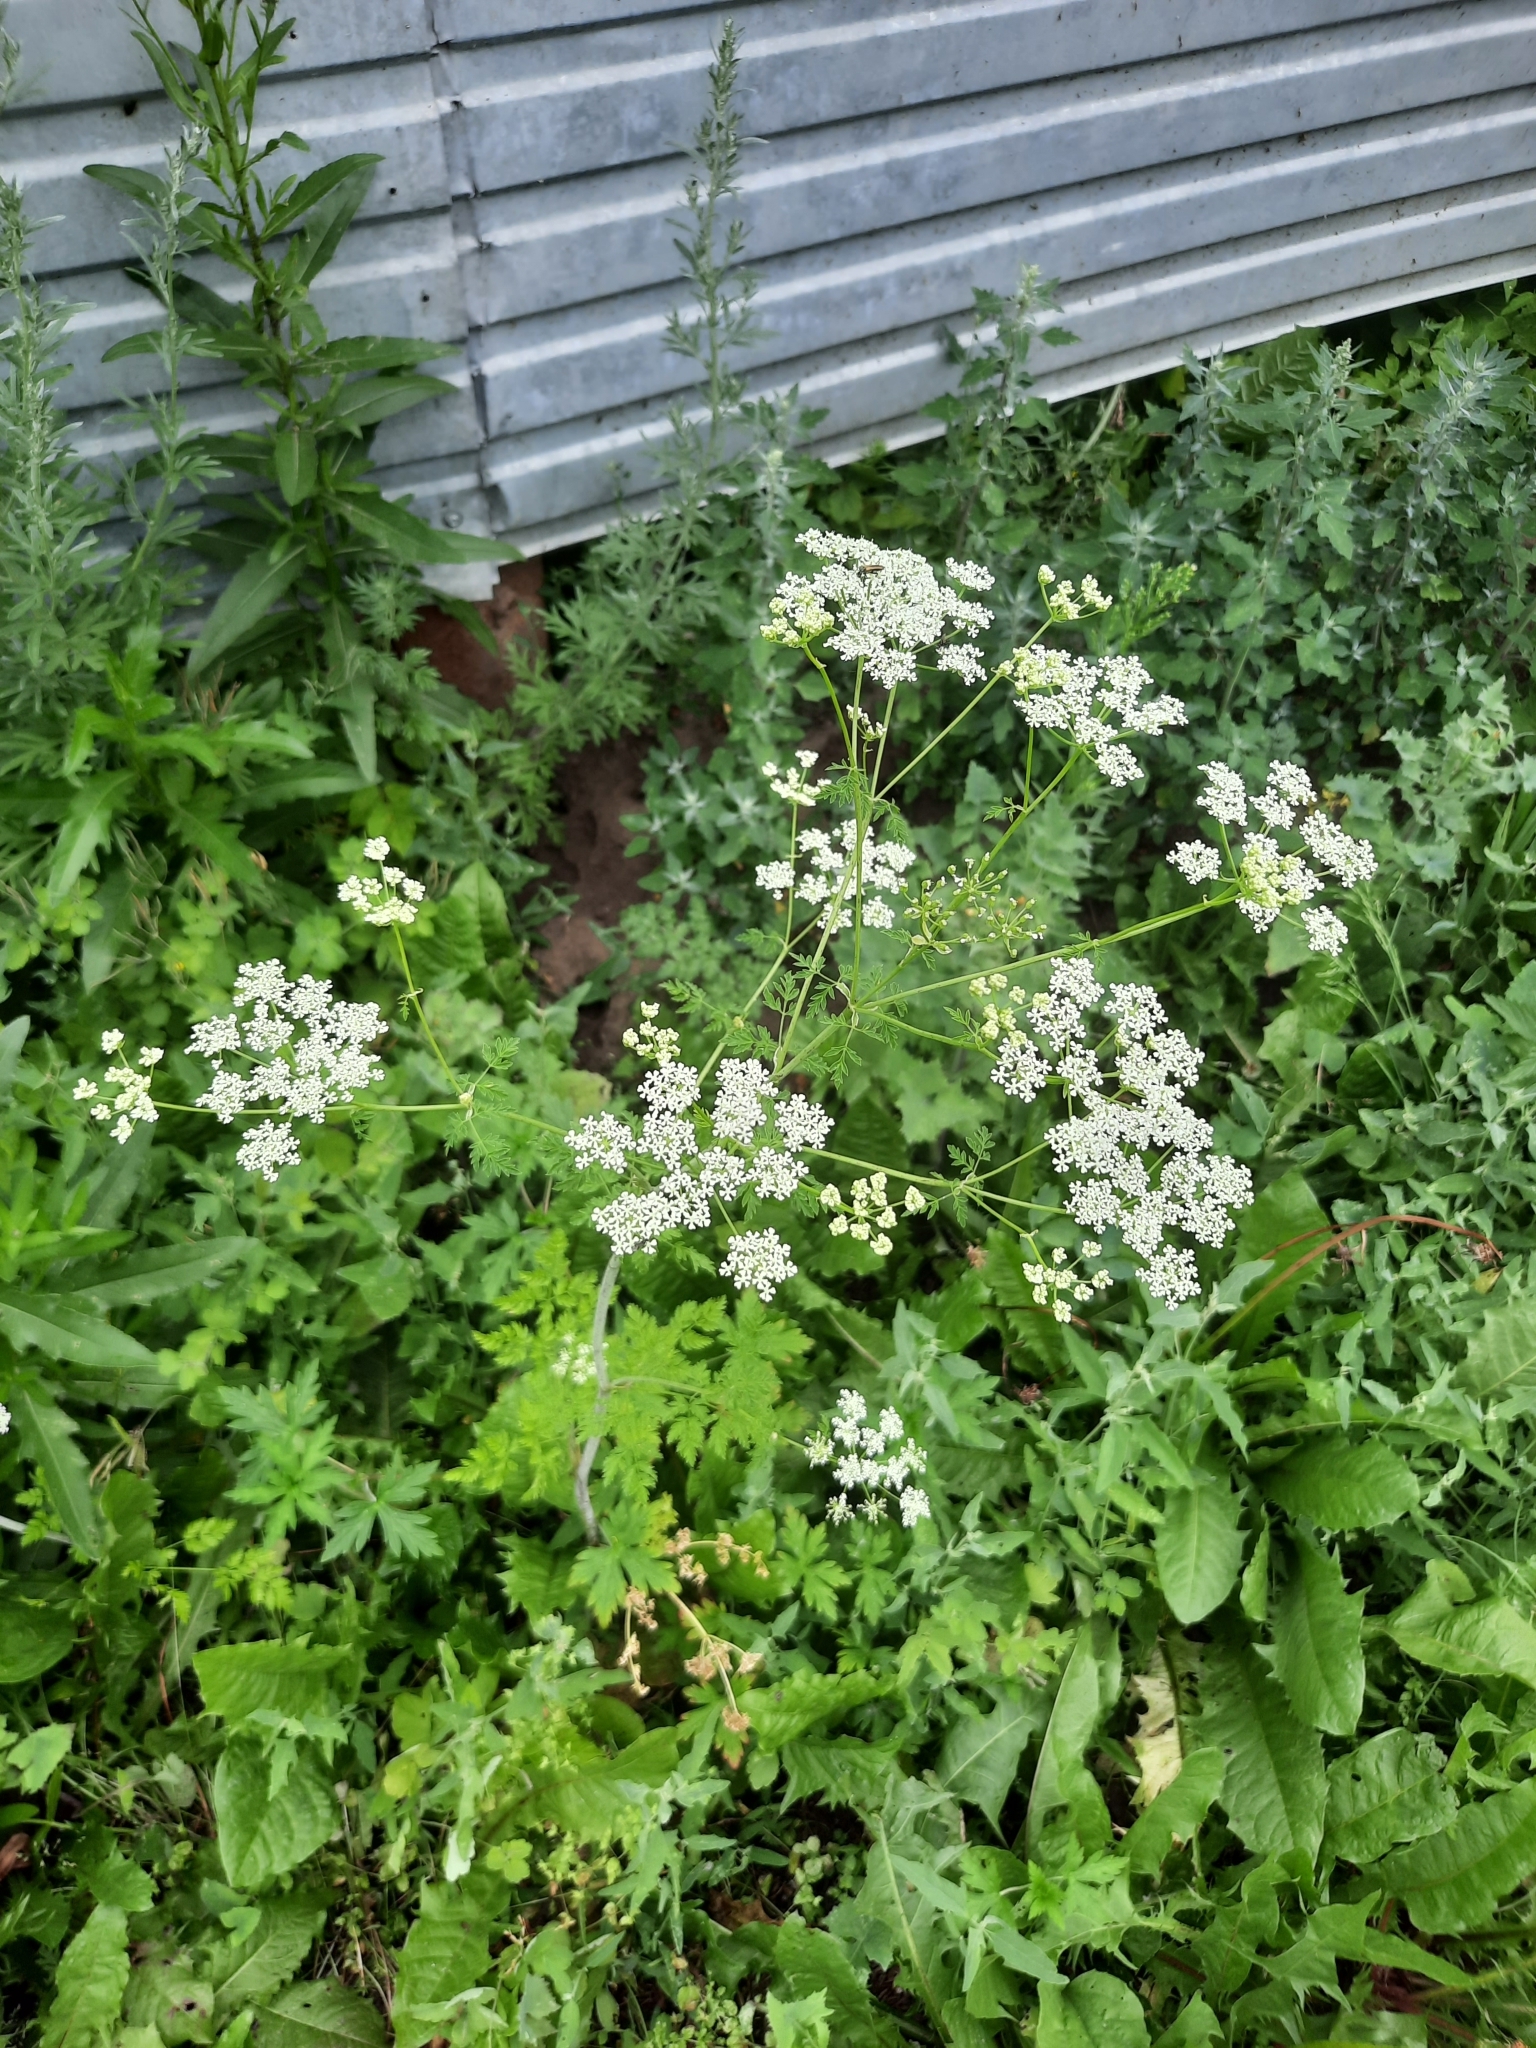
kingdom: Plantae
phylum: Tracheophyta
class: Magnoliopsida
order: Apiales
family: Apiaceae
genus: Conium
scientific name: Conium maculatum
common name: Hemlock
